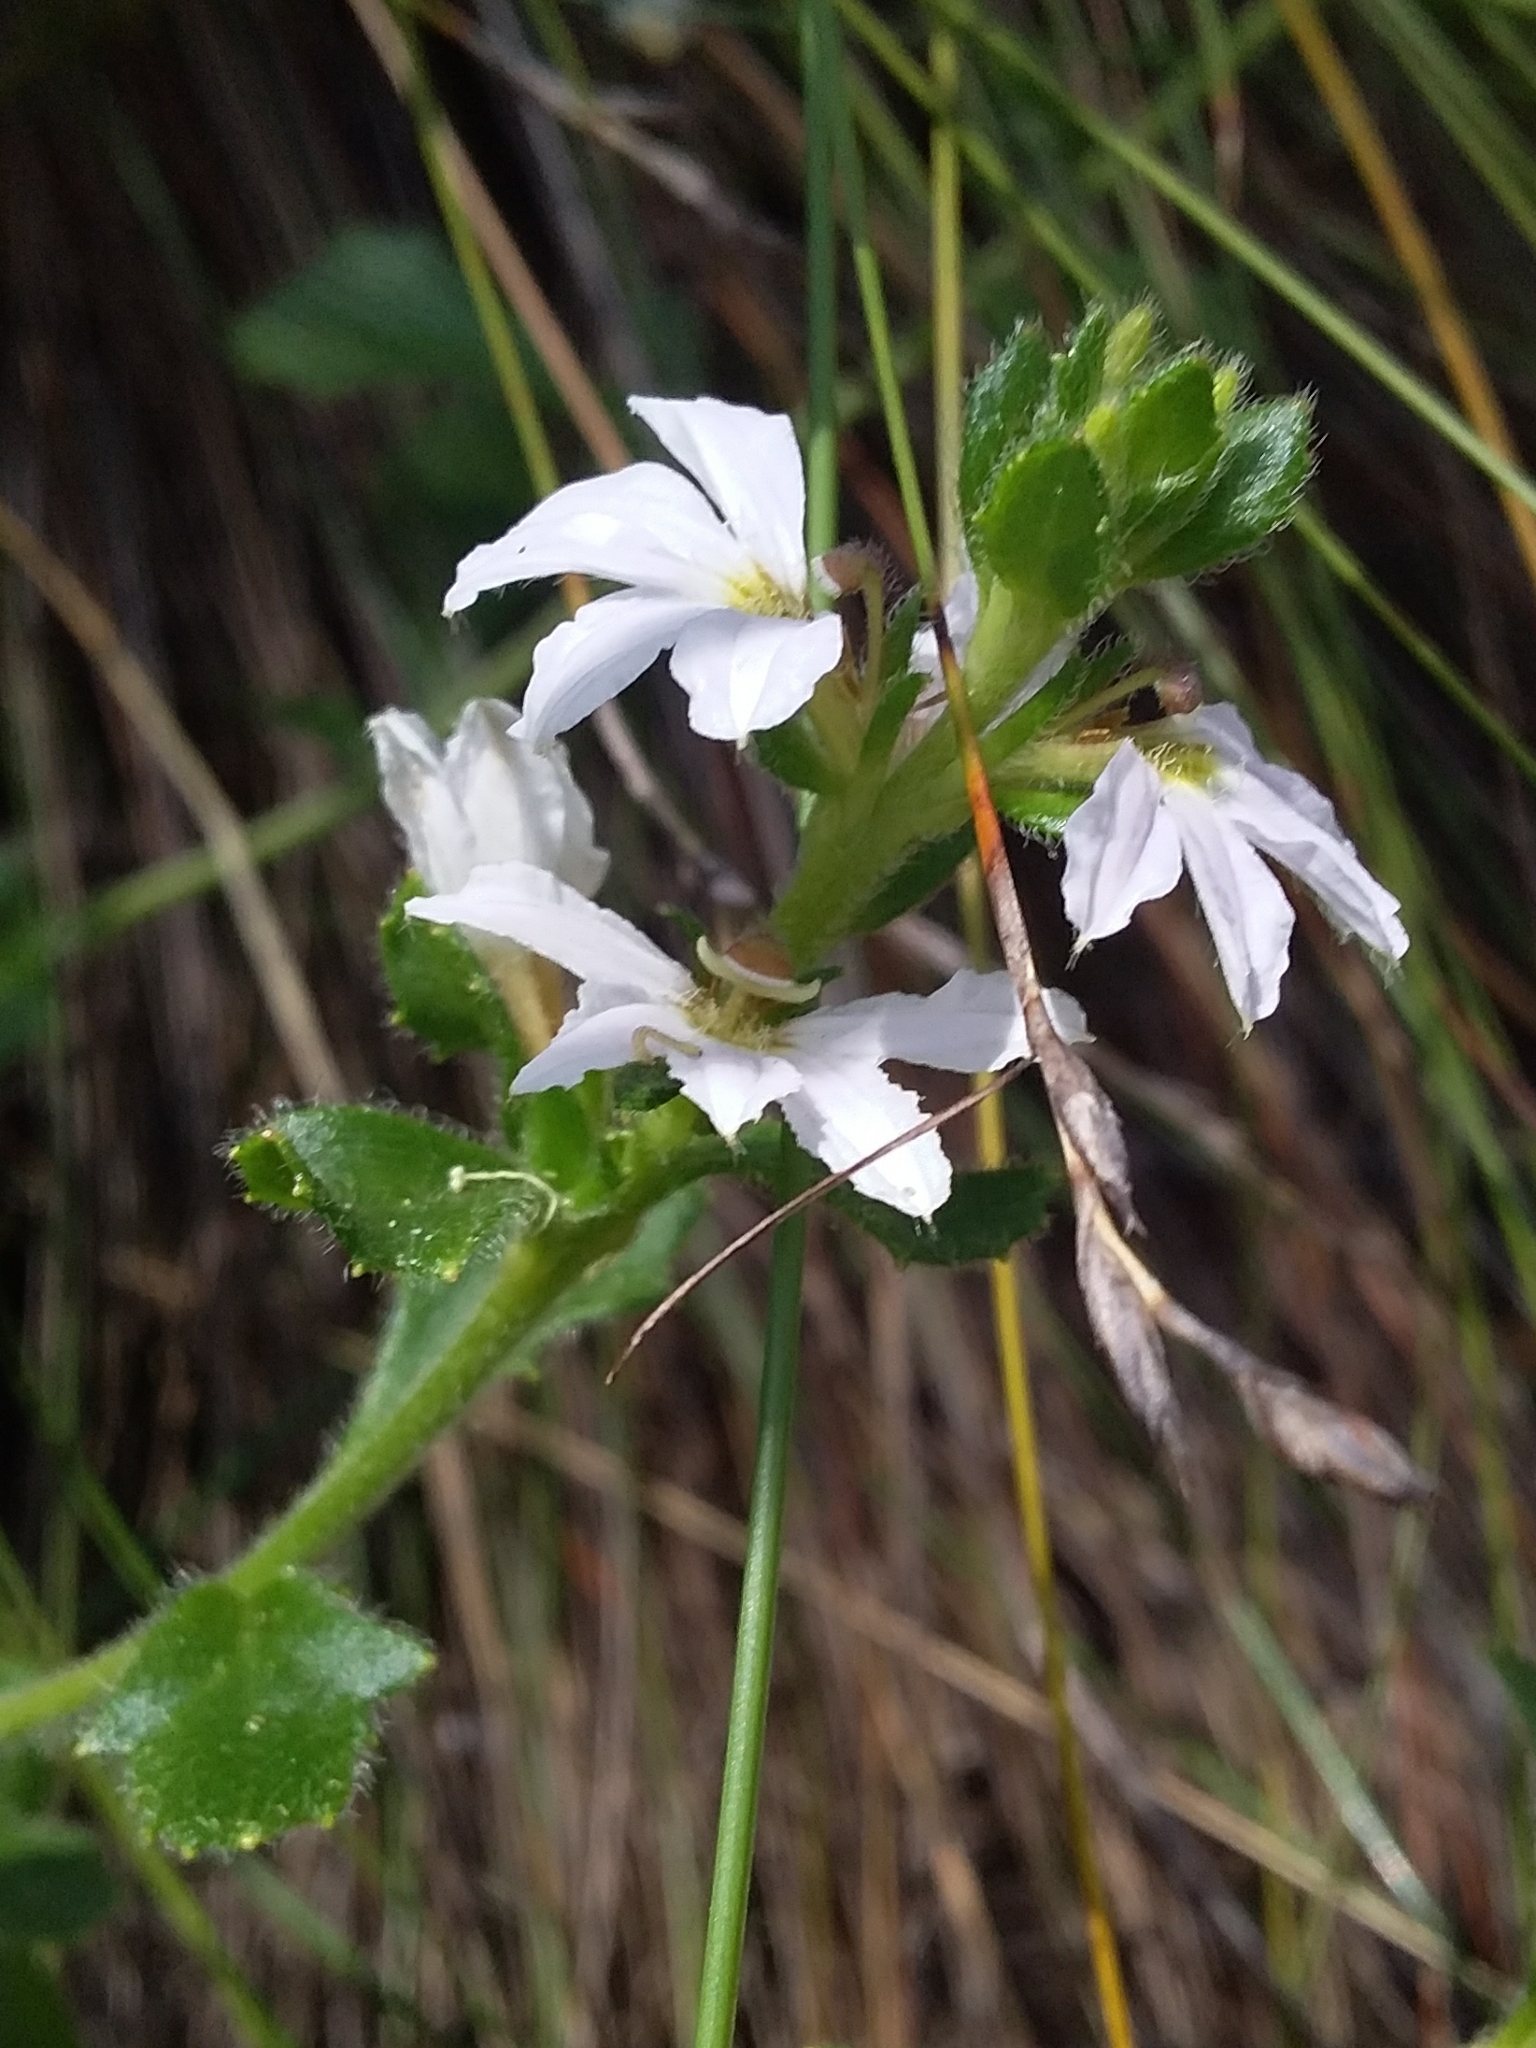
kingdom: Plantae
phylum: Tracheophyta
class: Magnoliopsida
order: Asterales
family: Goodeniaceae
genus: Scaevola
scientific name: Scaevola albida
